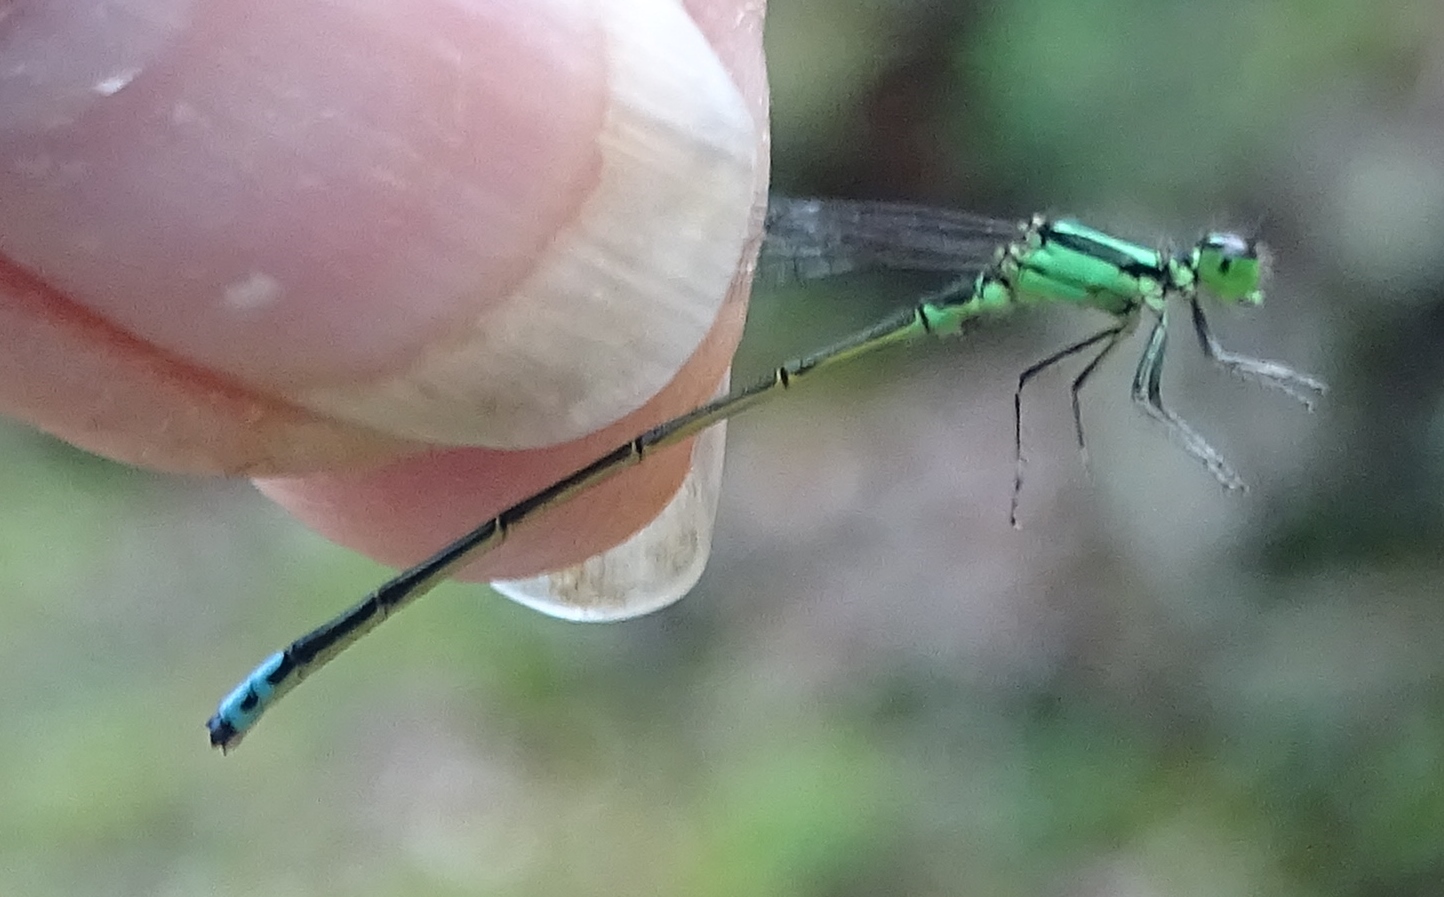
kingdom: Animalia
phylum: Arthropoda
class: Insecta
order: Odonata
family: Coenagrionidae
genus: Ischnura
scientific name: Ischnura verticalis
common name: Eastern forktail
